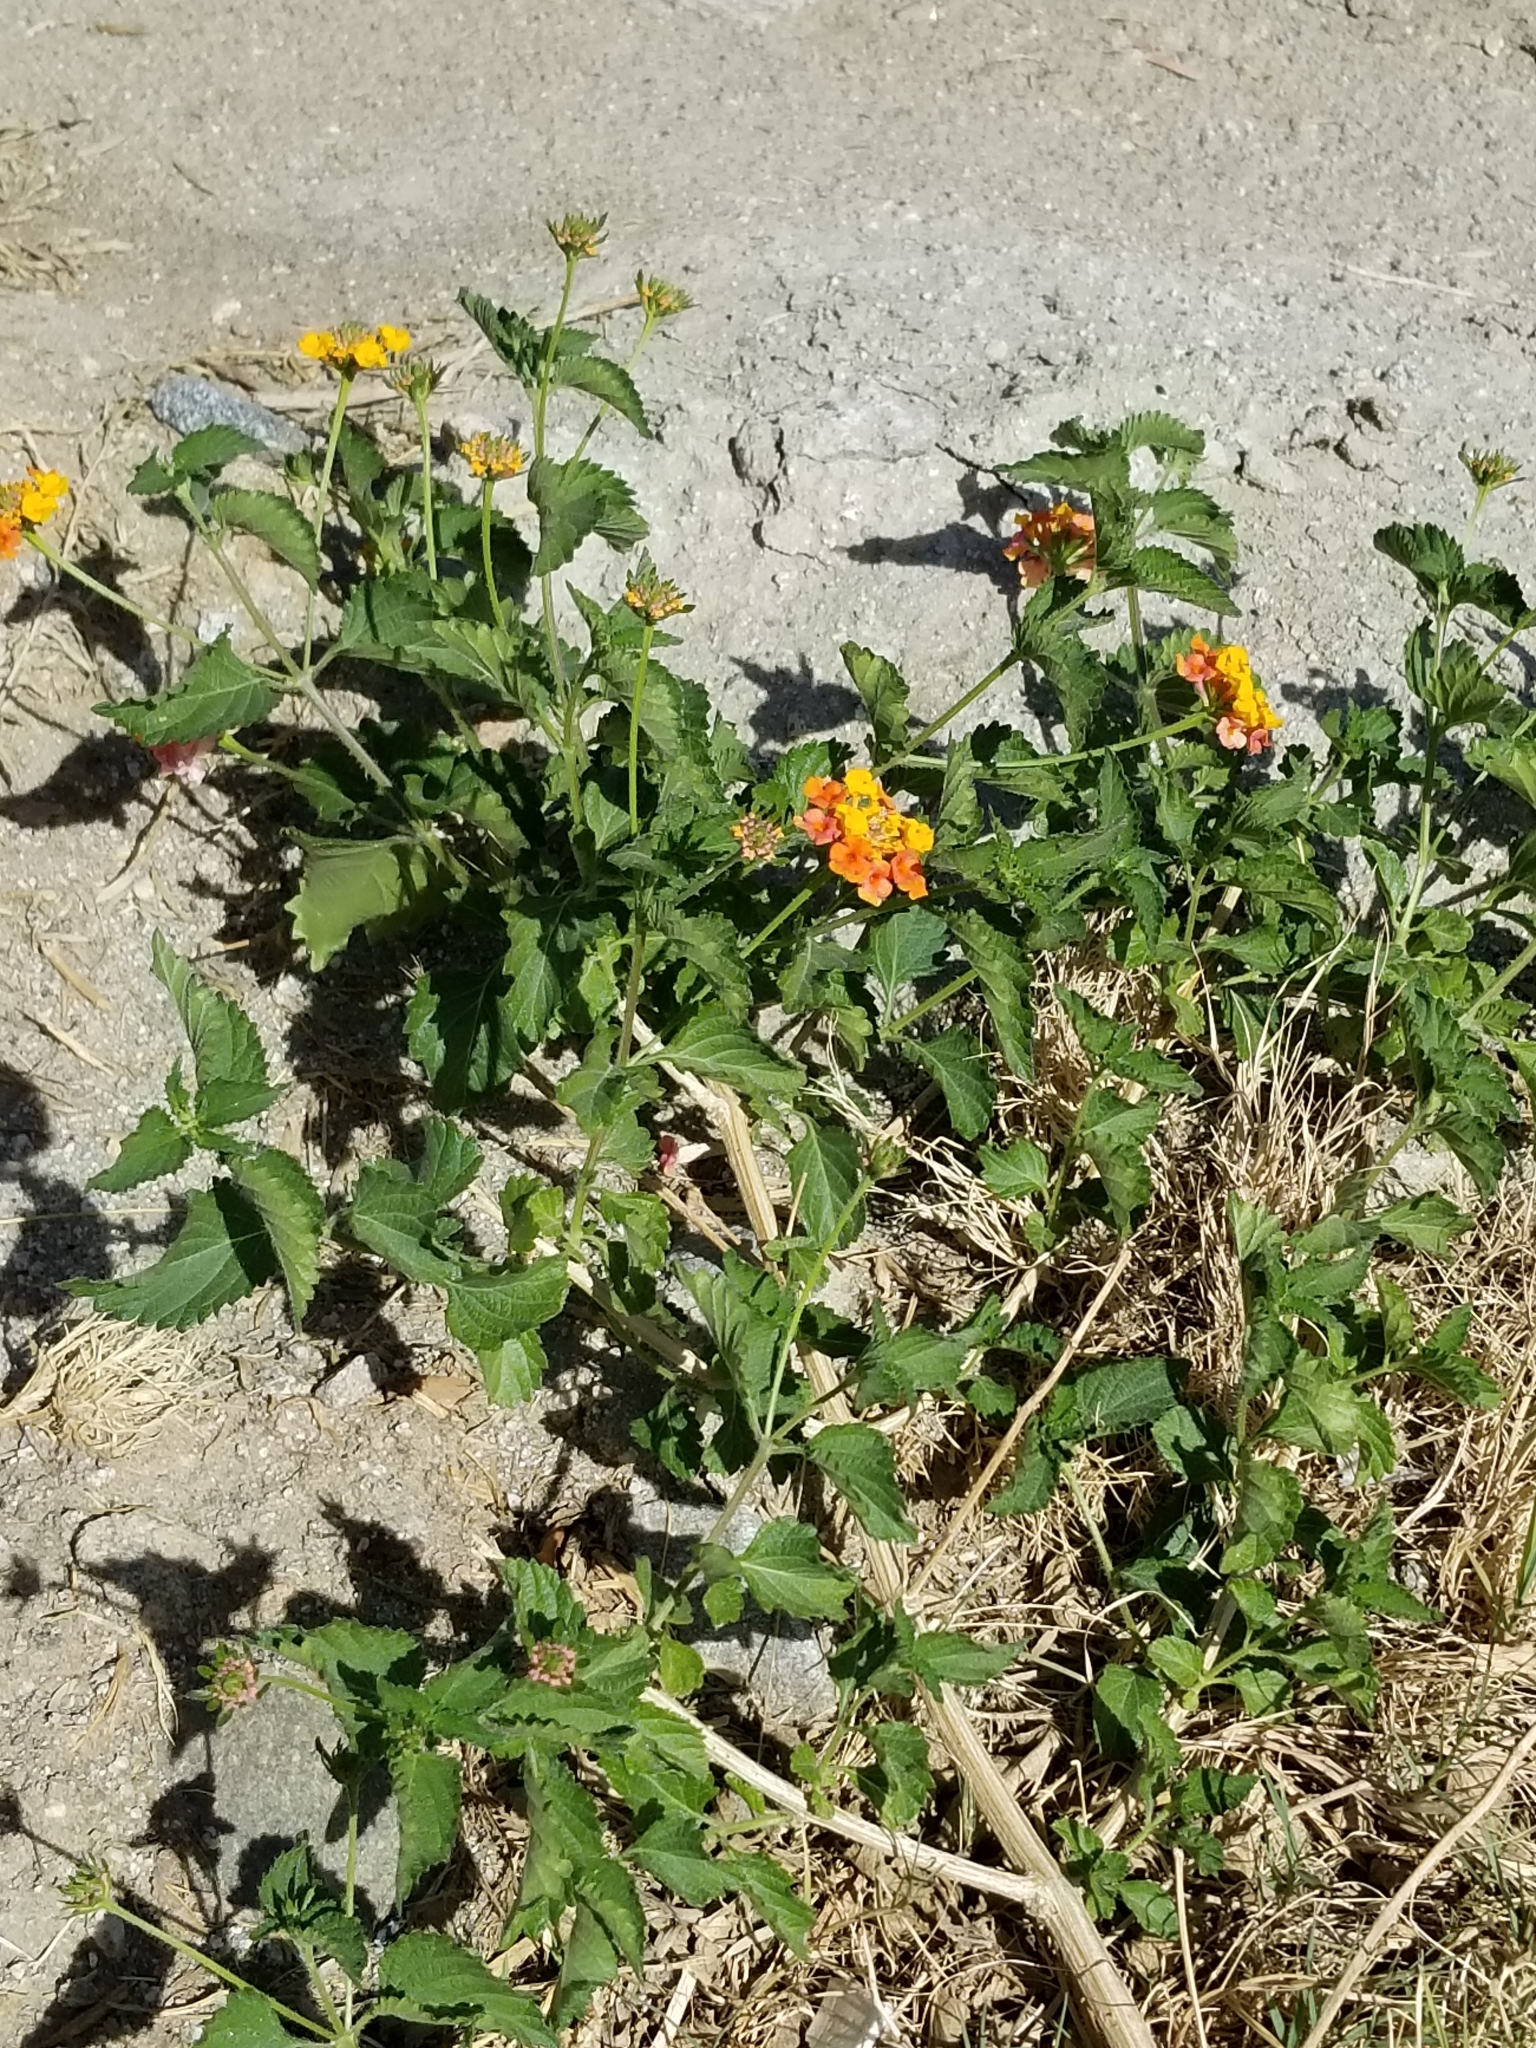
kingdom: Plantae
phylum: Tracheophyta
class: Magnoliopsida
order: Lamiales
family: Verbenaceae
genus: Lantana
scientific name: Lantana camara
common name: Lantana
